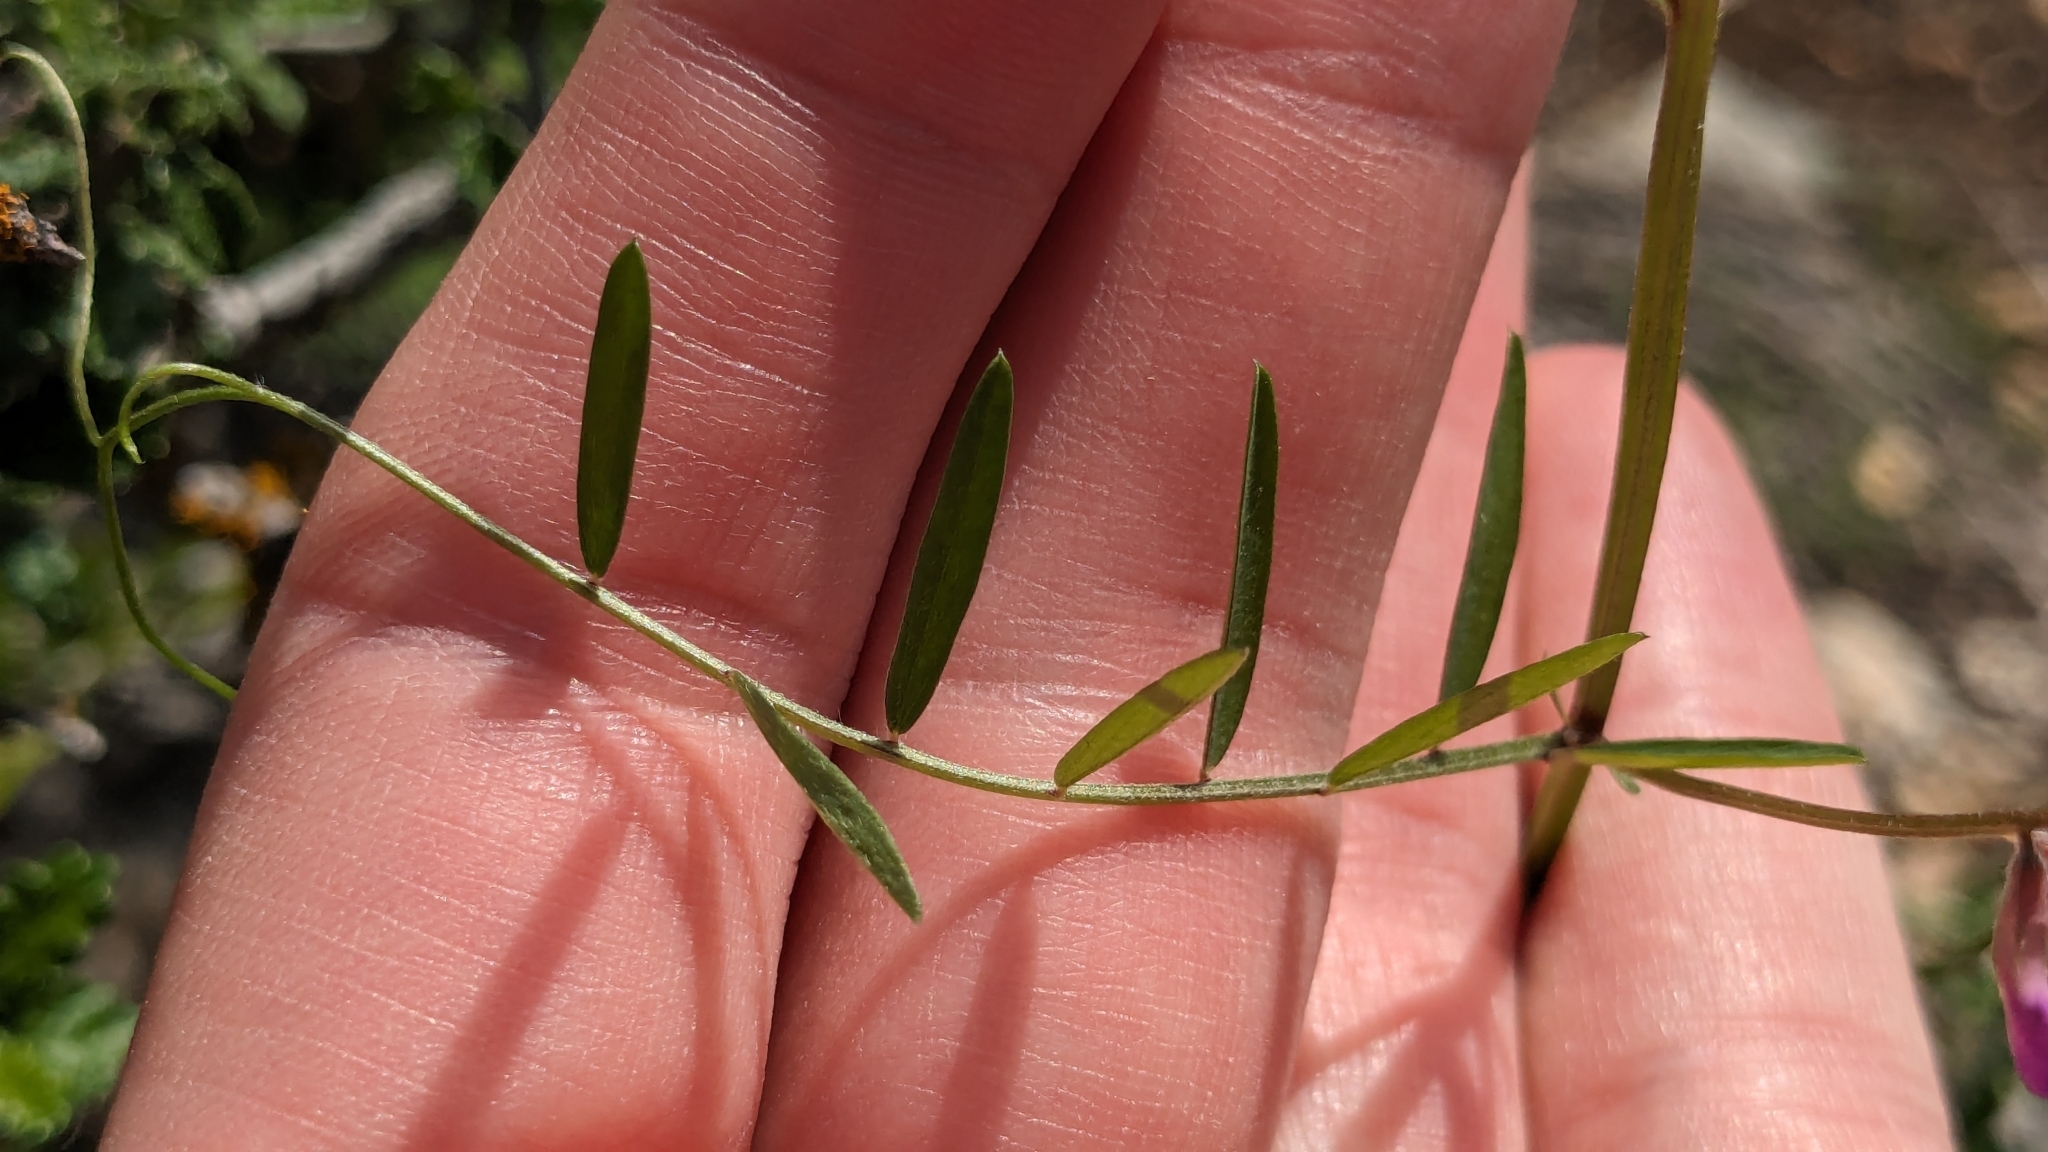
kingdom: Plantae
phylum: Tracheophyta
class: Magnoliopsida
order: Fabales
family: Fabaceae
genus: Vicia
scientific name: Vicia ludoviciana
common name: Louisiana vetch
